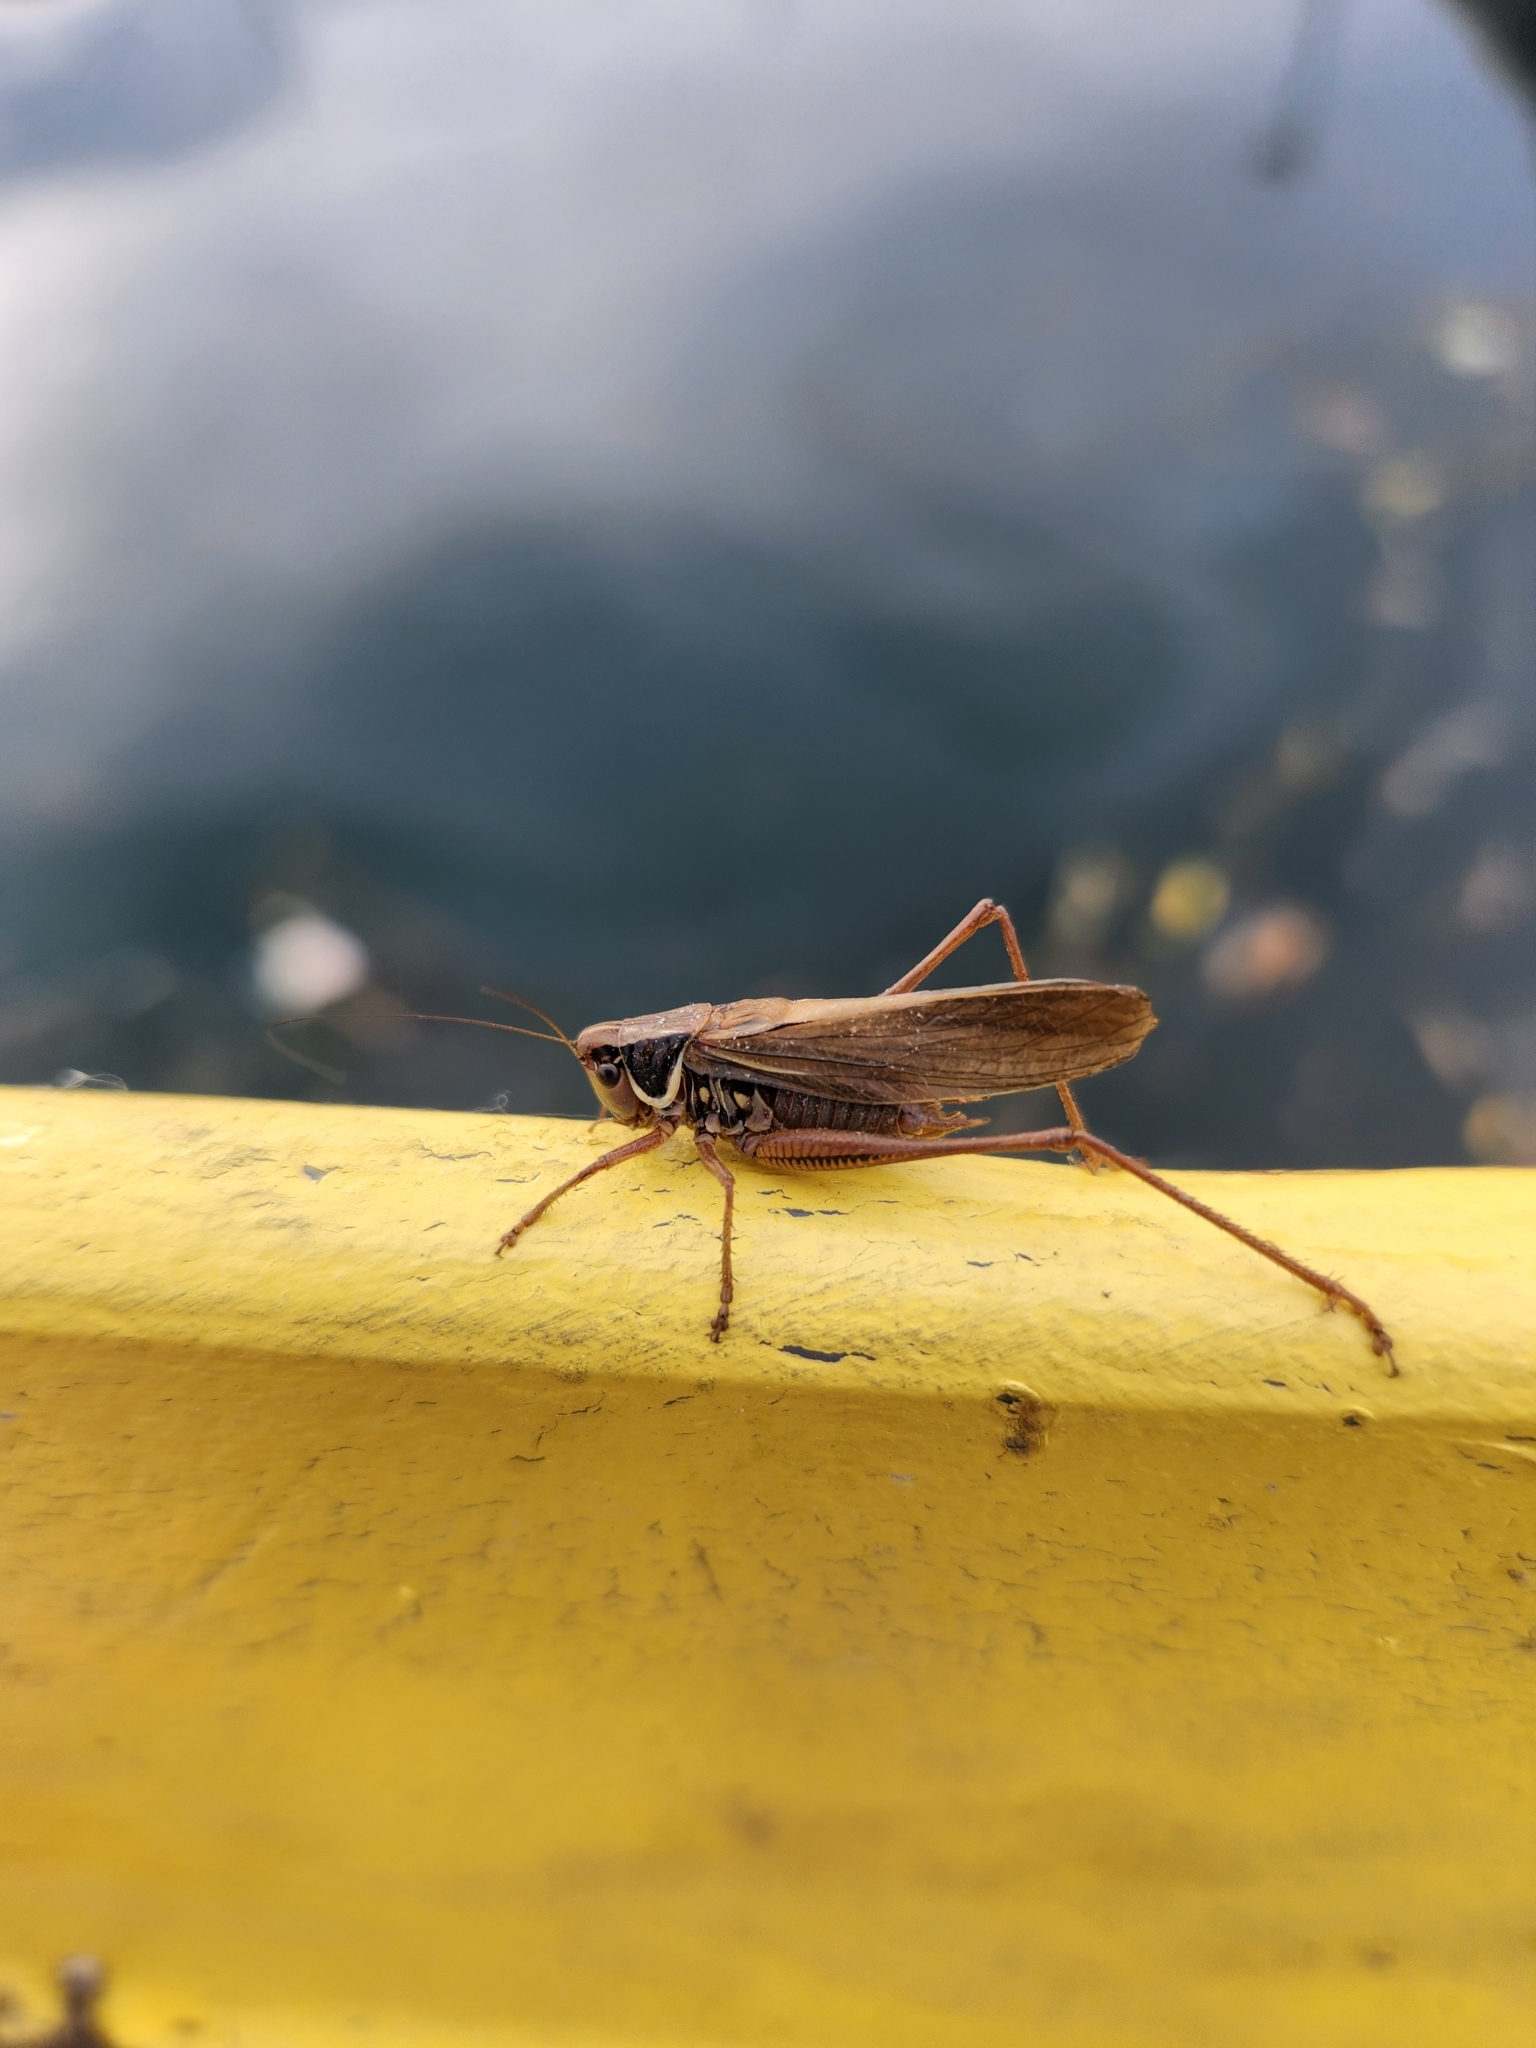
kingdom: Animalia
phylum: Arthropoda
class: Insecta
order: Orthoptera
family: Tettigoniidae
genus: Roeseliana
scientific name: Roeseliana roeselii
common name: Roesel's bush cricket
